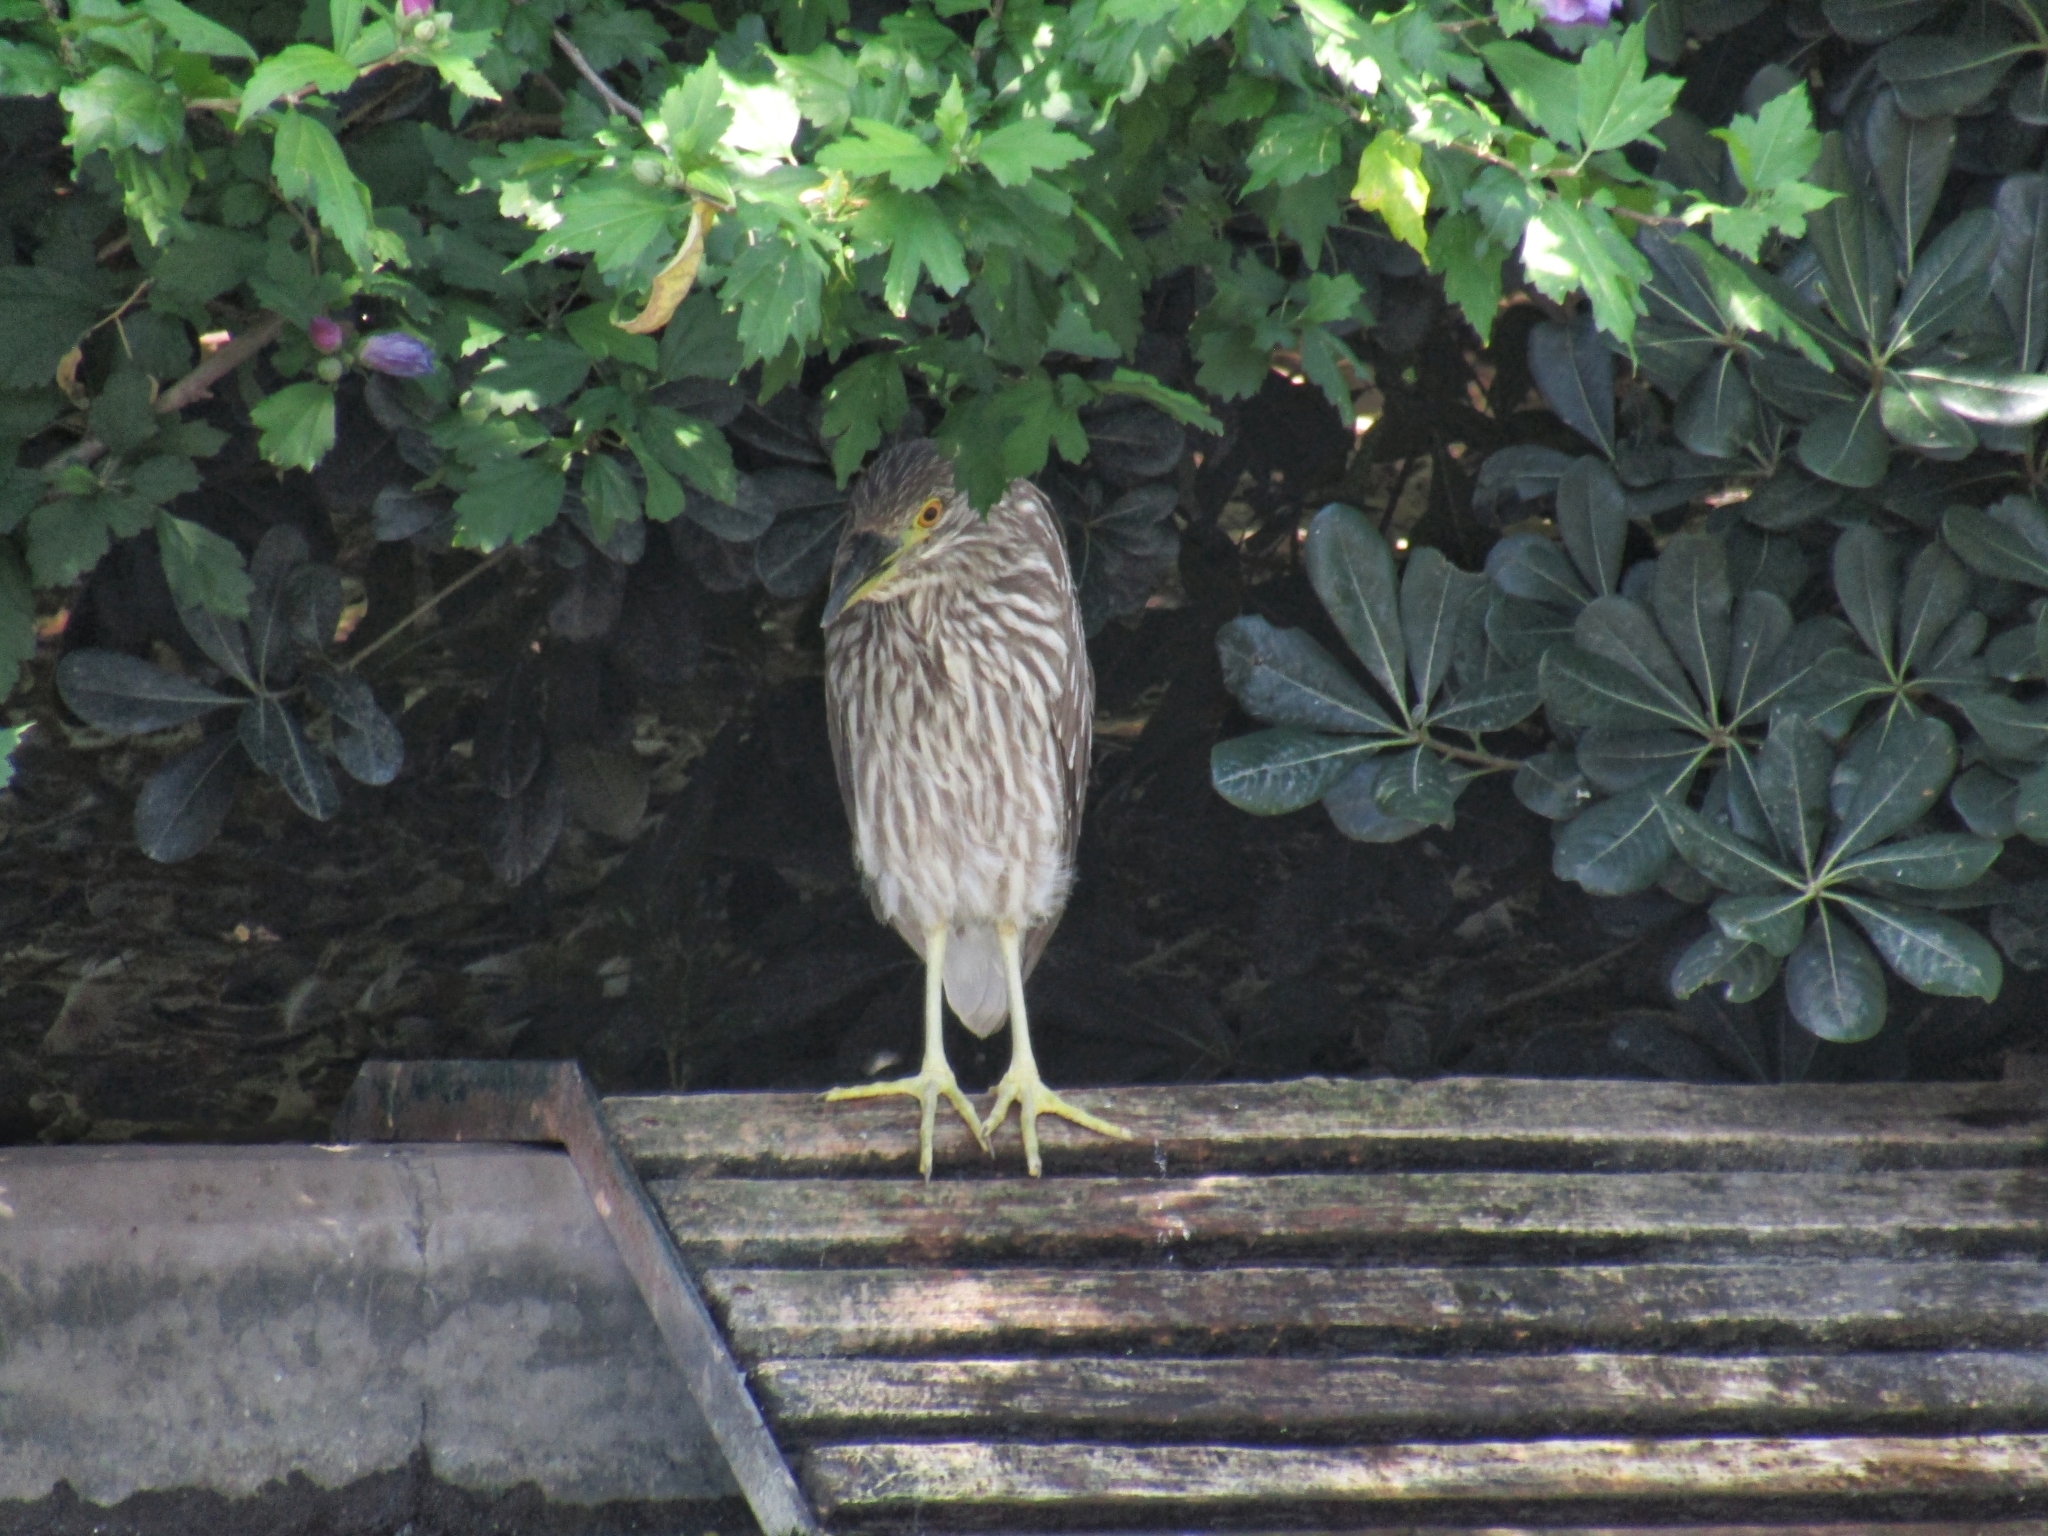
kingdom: Animalia
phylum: Chordata
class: Aves
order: Pelecaniformes
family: Ardeidae
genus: Nycticorax
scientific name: Nycticorax nycticorax
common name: Black-crowned night heron
